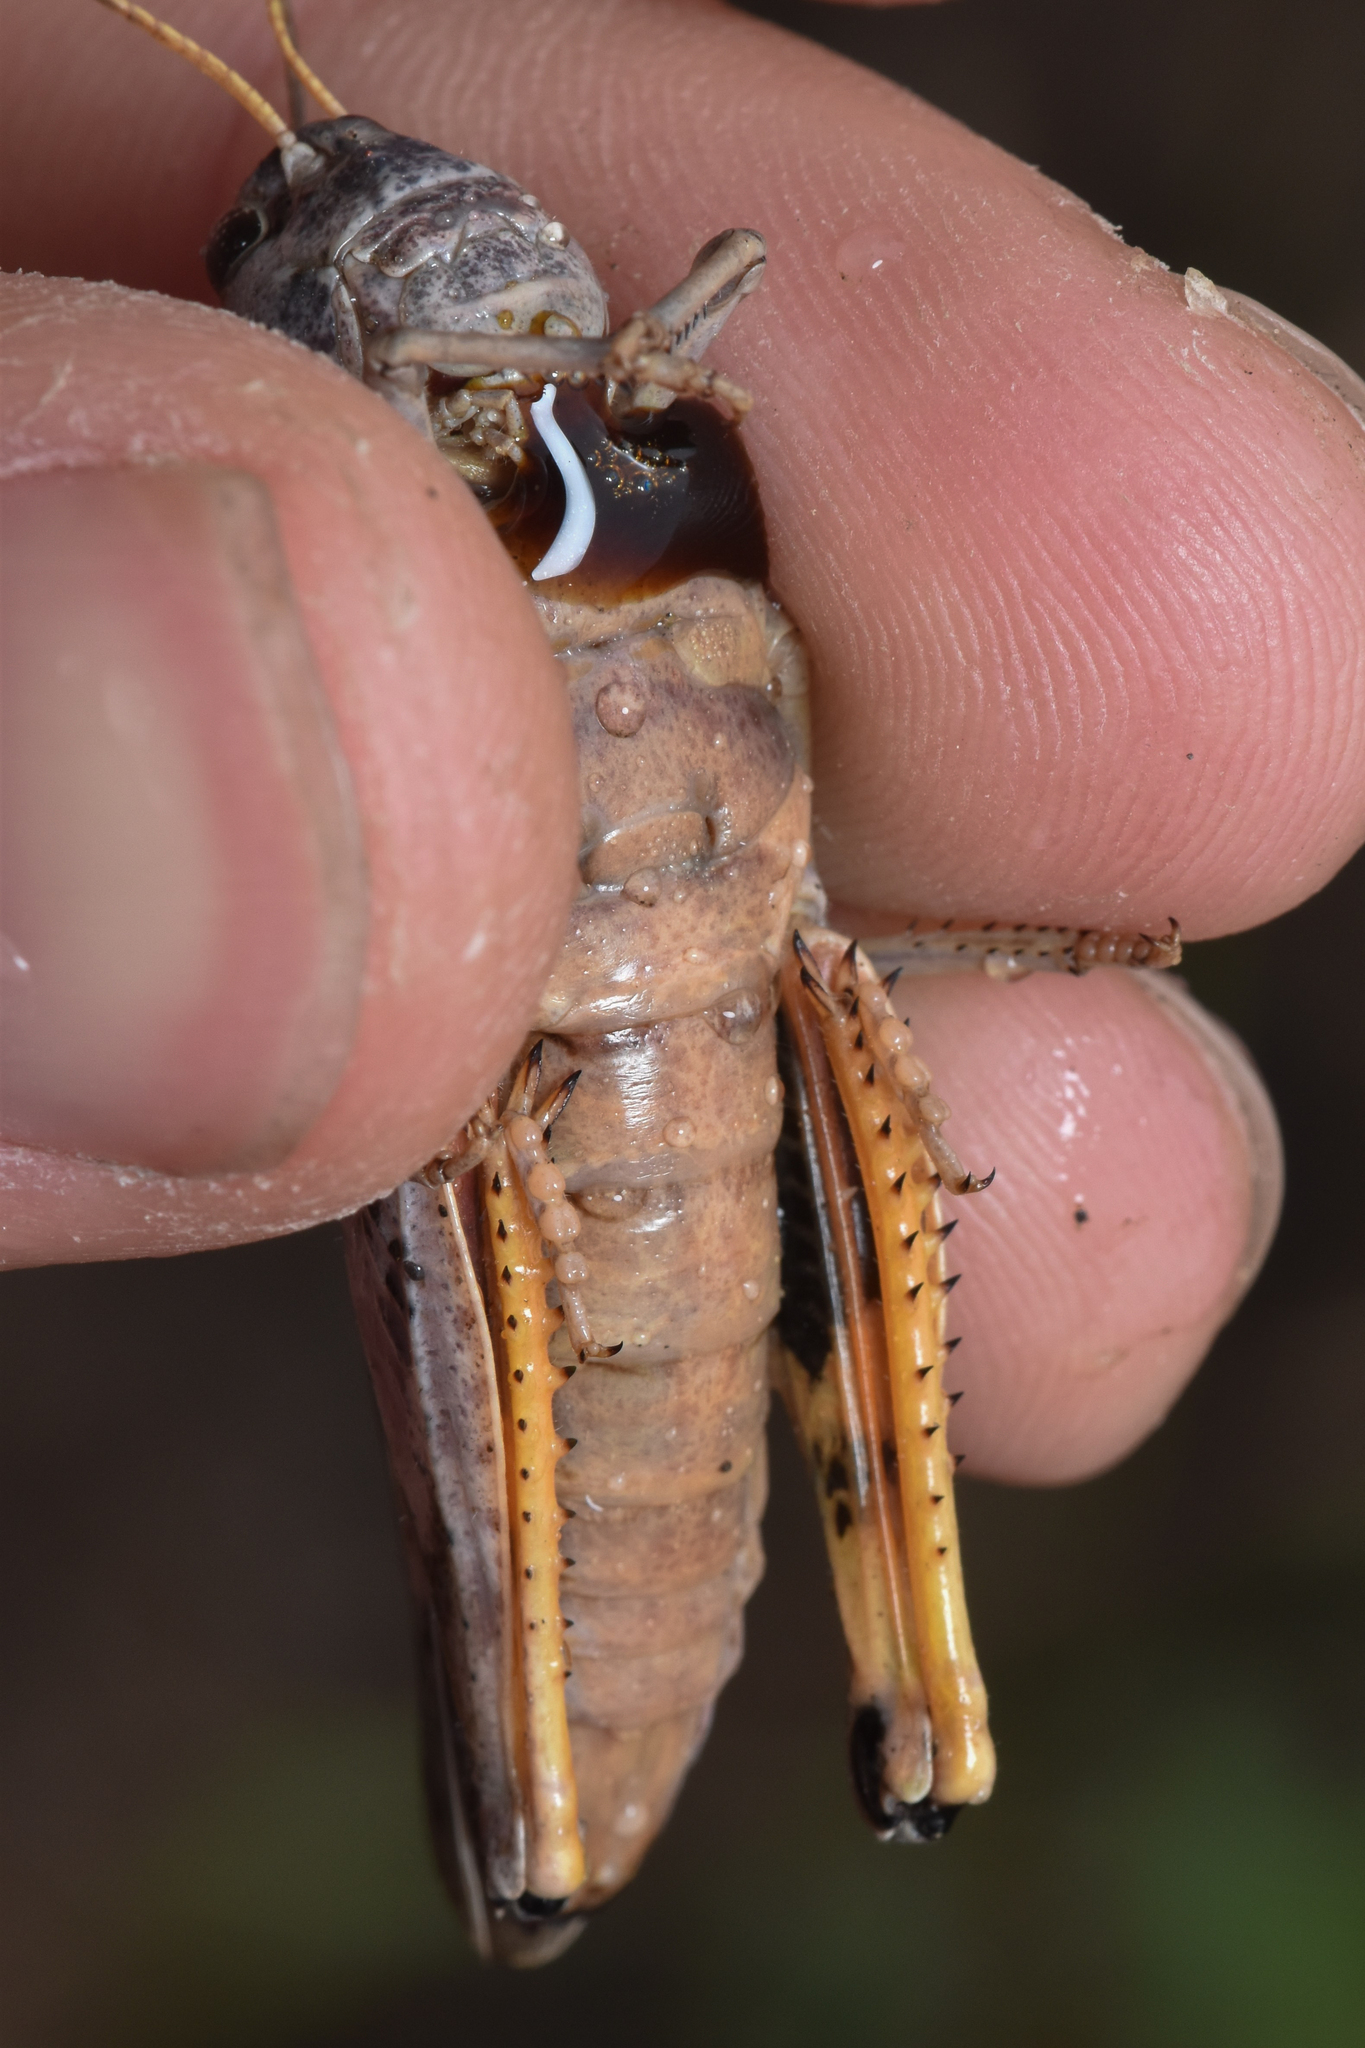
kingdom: Animalia
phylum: Arthropoda
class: Insecta
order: Orthoptera
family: Acrididae
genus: Pardalophora
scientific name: Pardalophora apiculata
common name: Coral-winged locust
